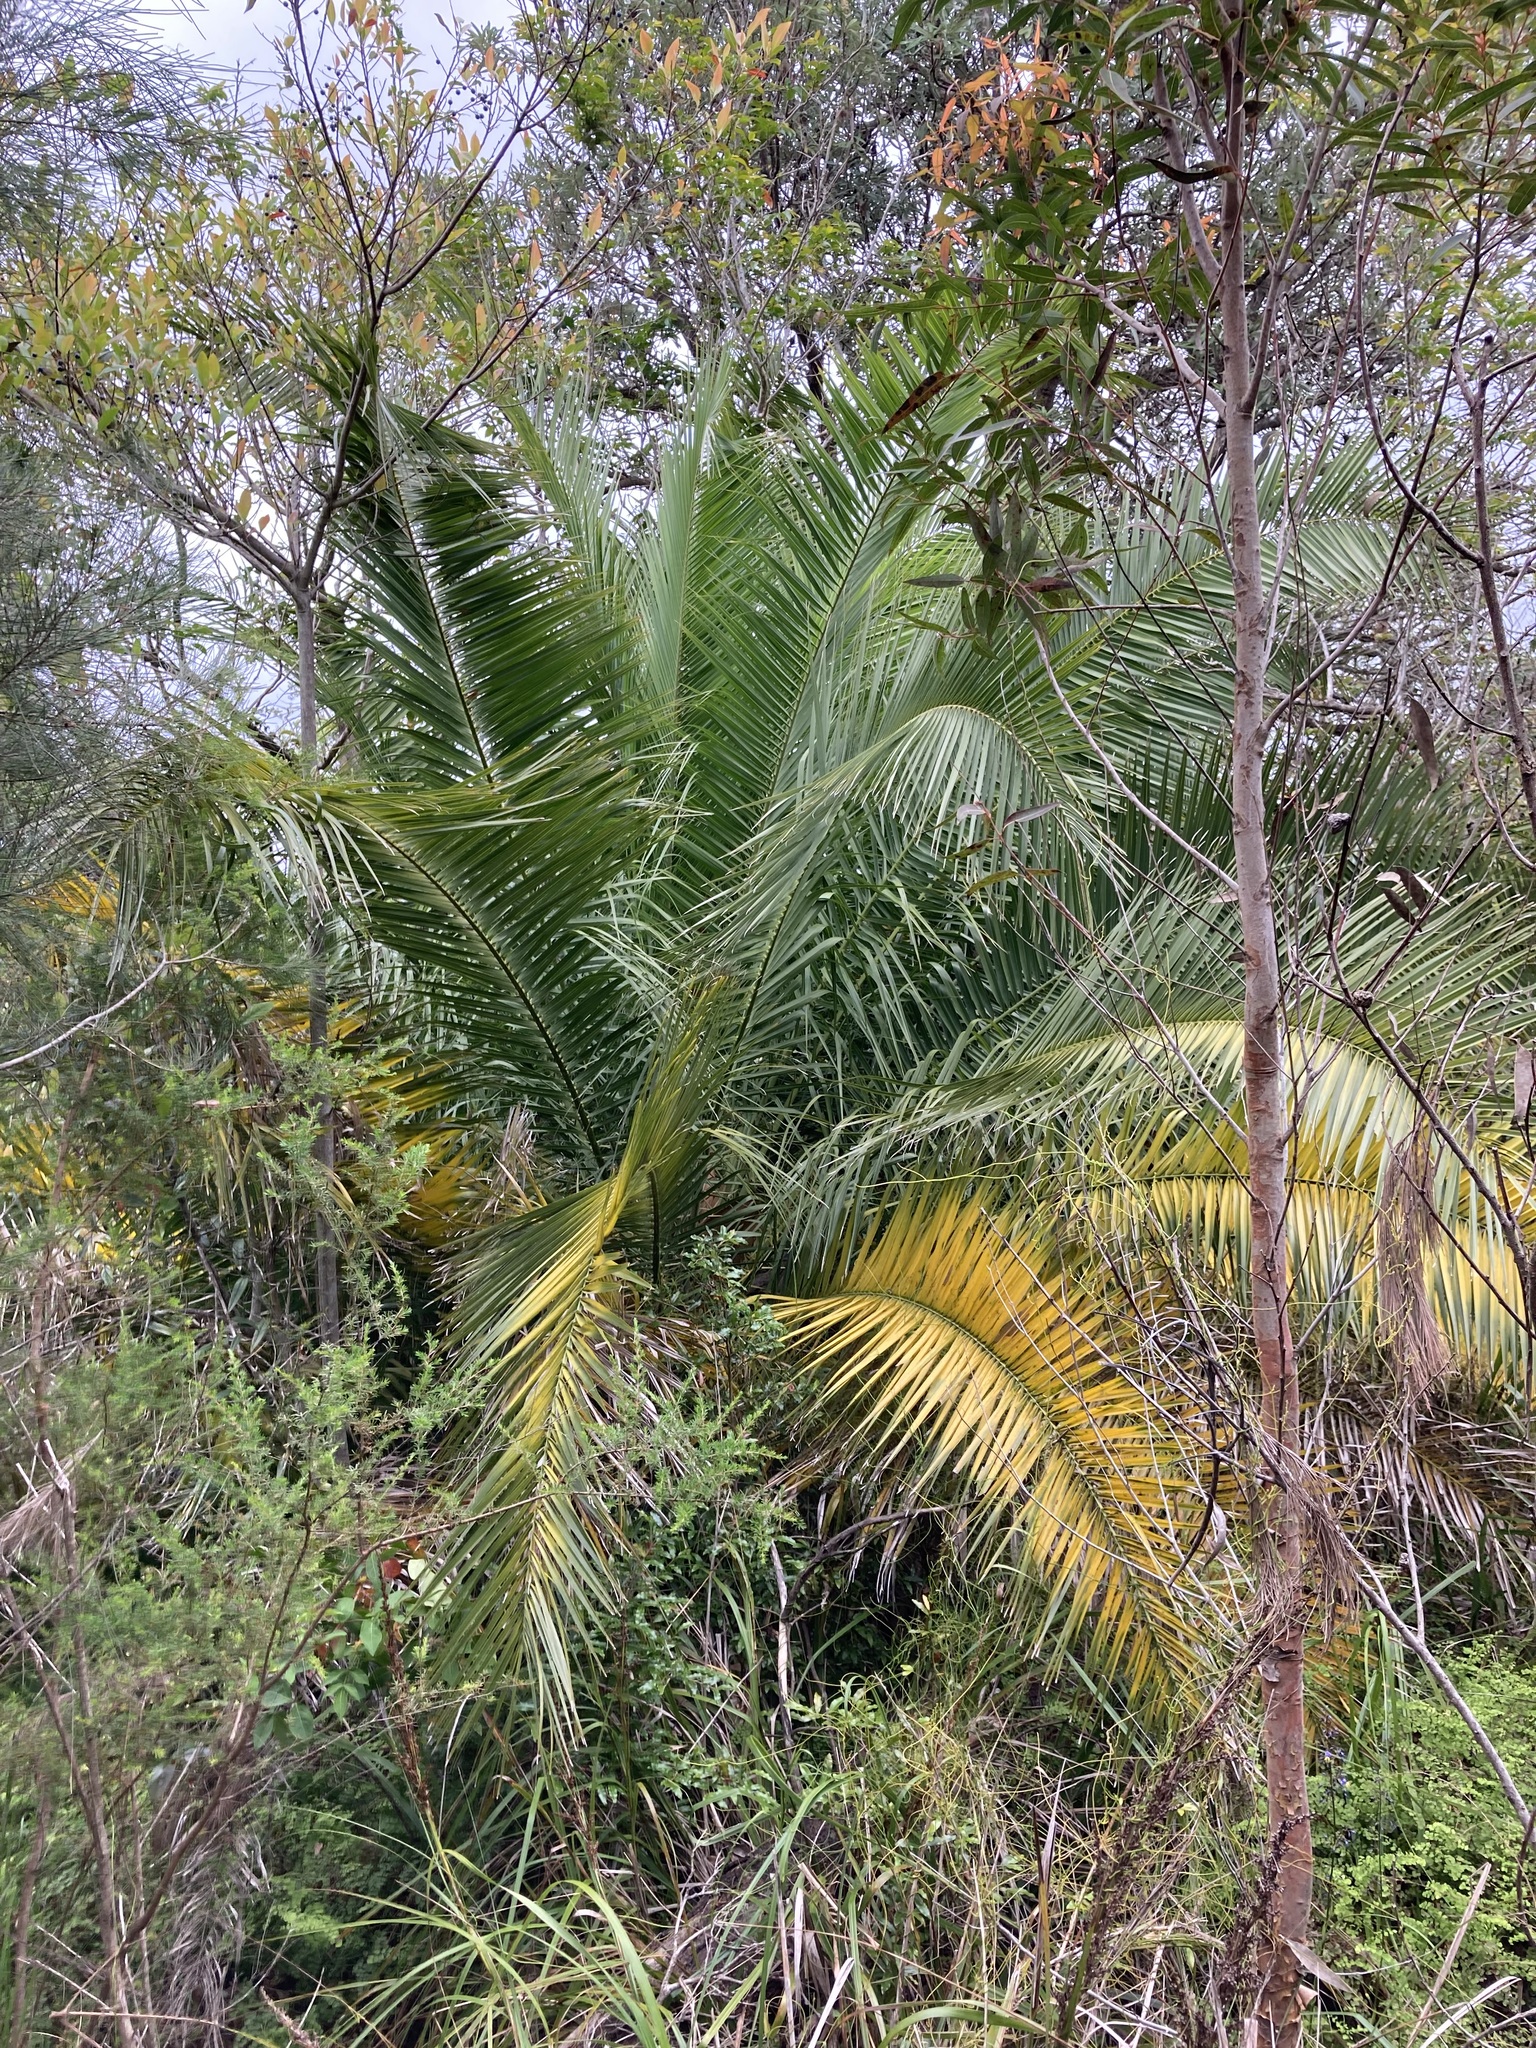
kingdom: Plantae
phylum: Tracheophyta
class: Liliopsida
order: Arecales
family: Arecaceae
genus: Phoenix
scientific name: Phoenix canariensis
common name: Canary island date palm
